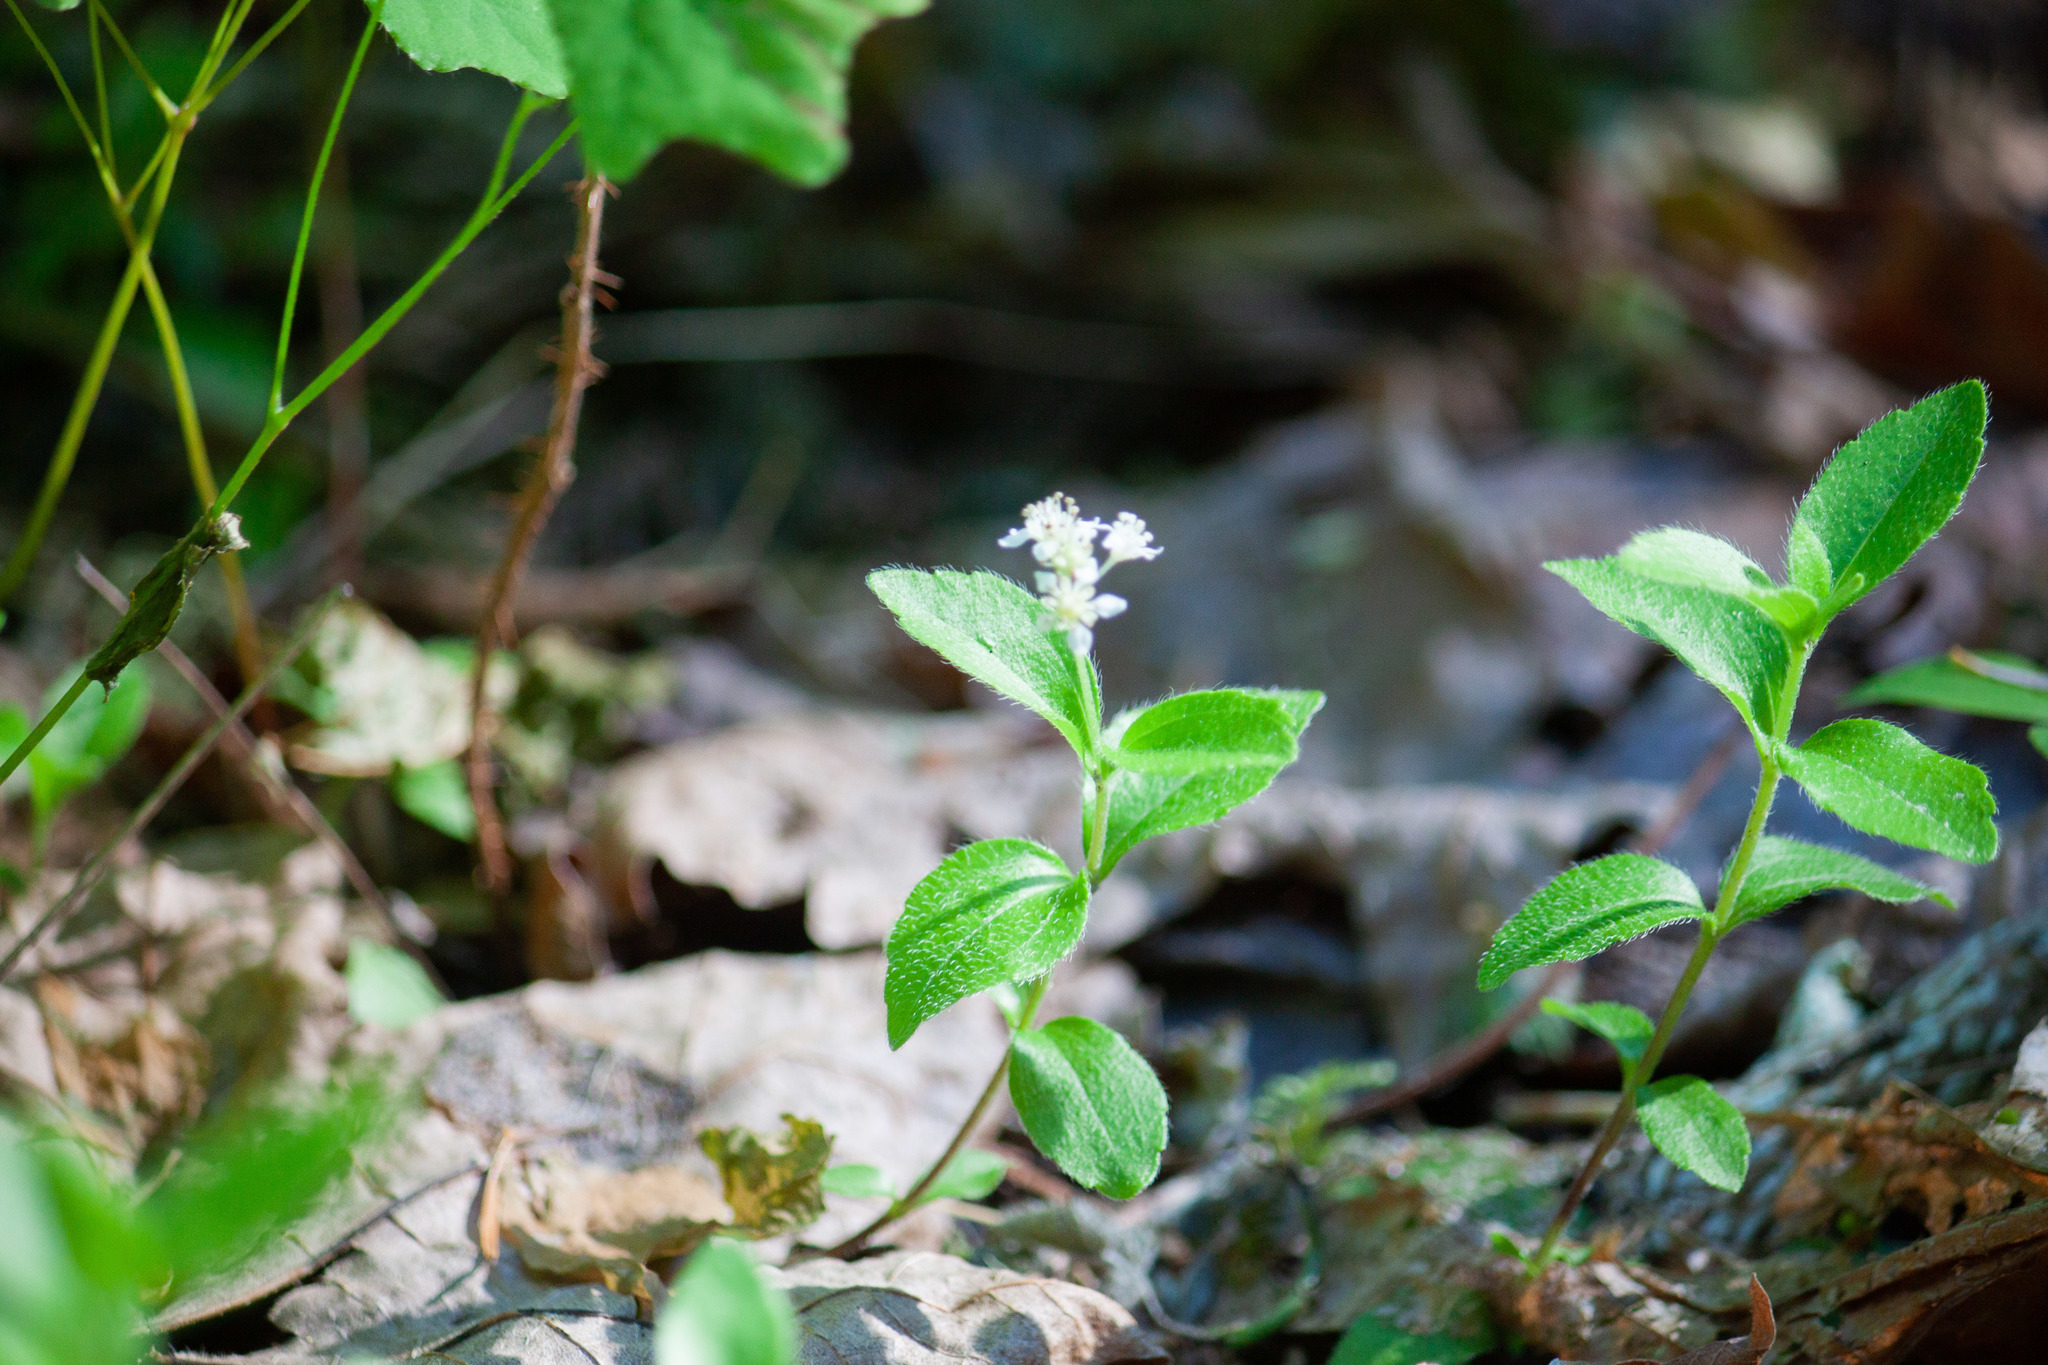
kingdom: Plantae
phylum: Tracheophyta
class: Magnoliopsida
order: Cornales
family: Hydrangeaceae
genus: Whipplea
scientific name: Whipplea modesta
